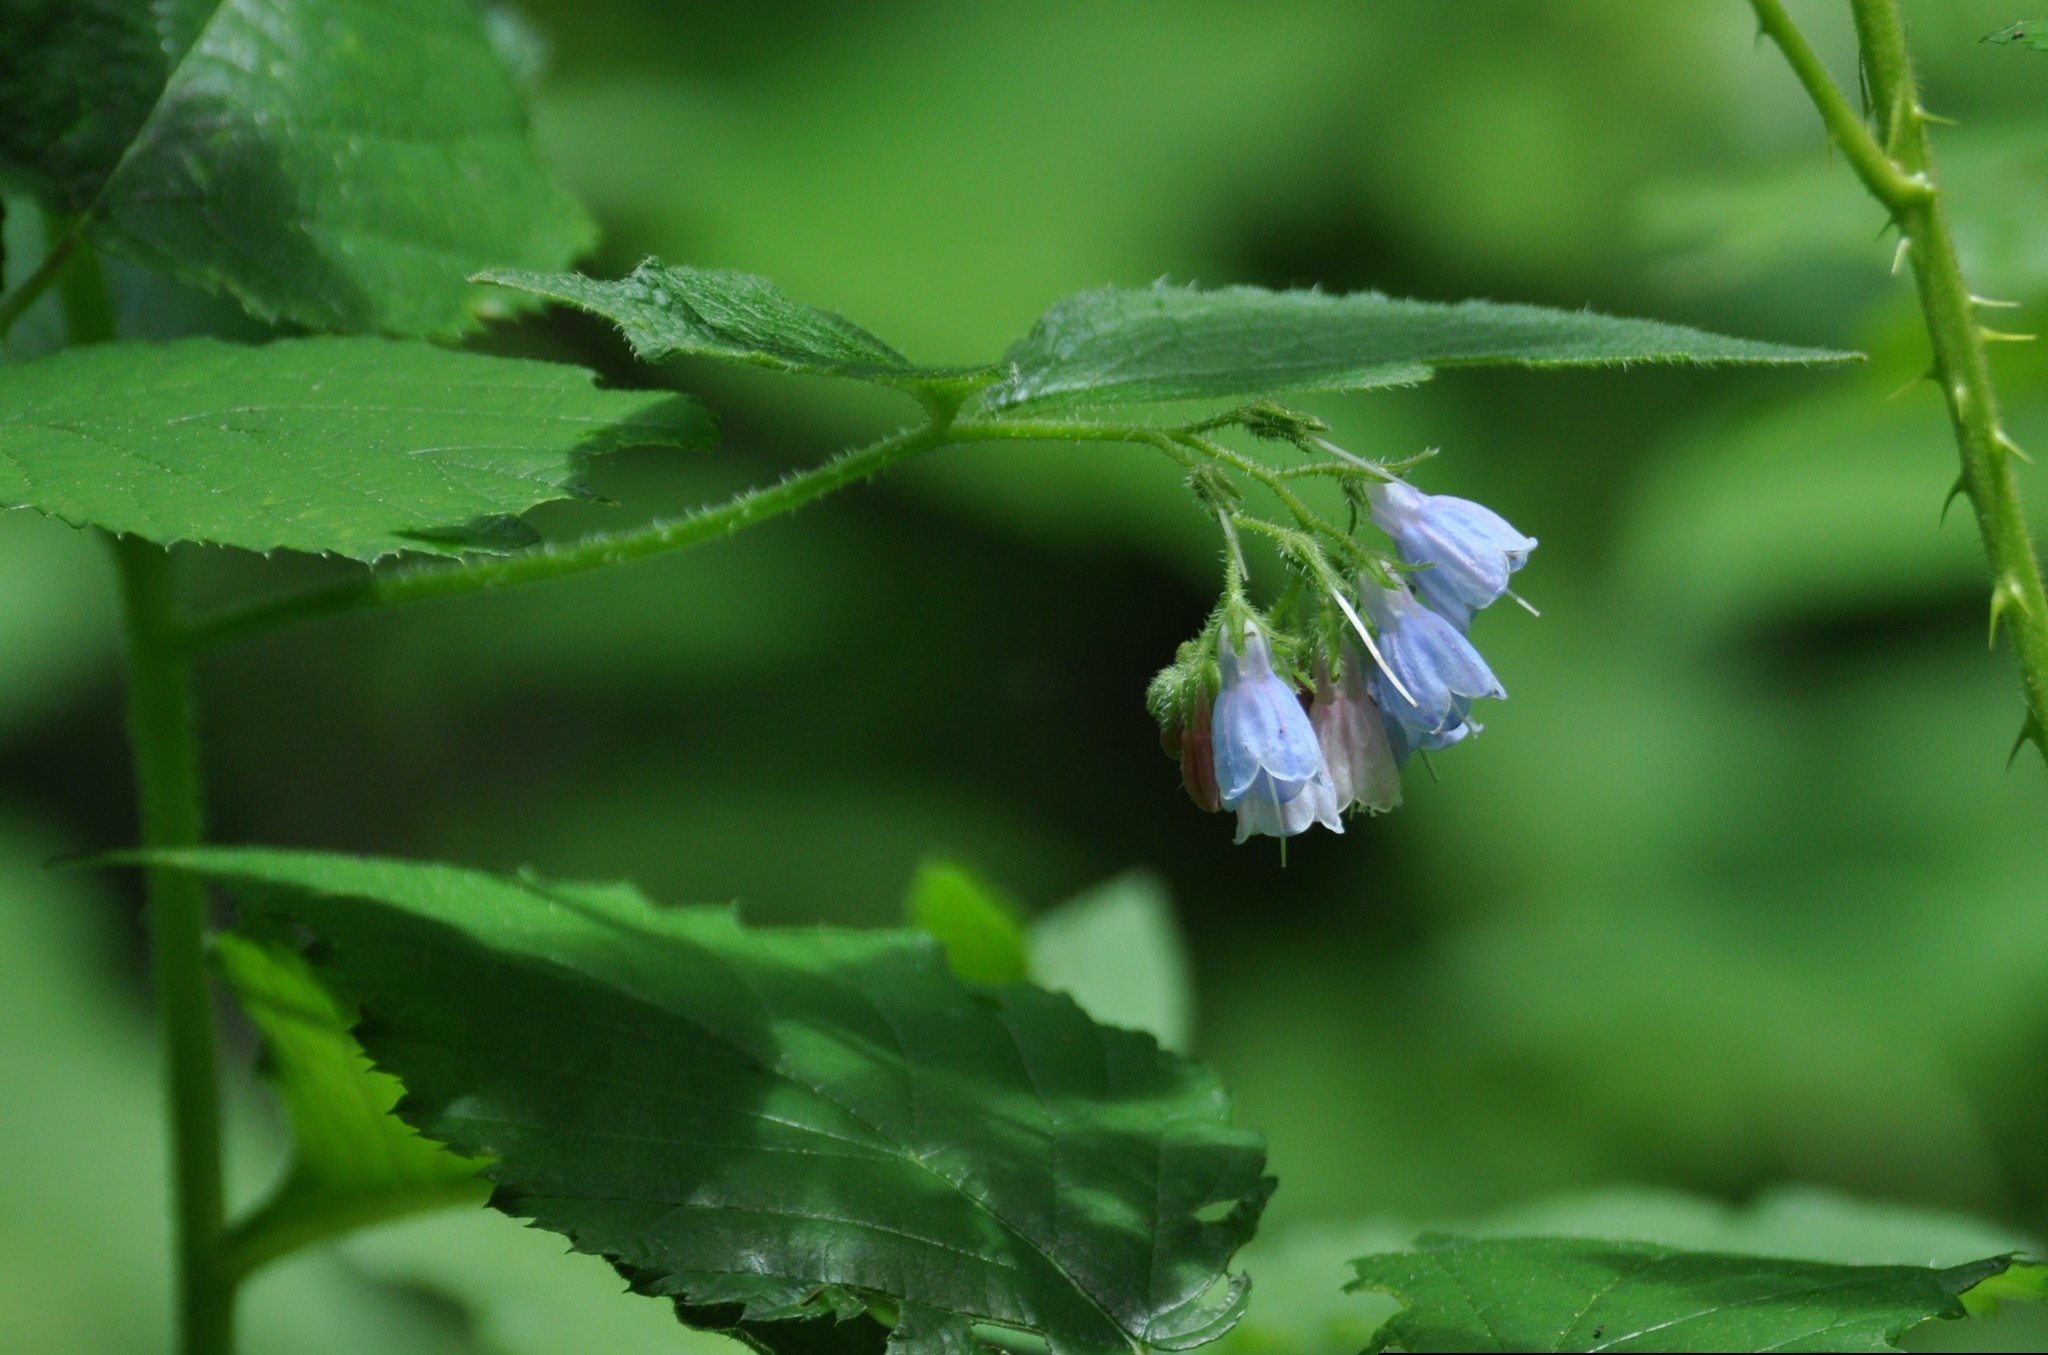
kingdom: Plantae
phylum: Tracheophyta
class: Magnoliopsida
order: Boraginales
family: Boraginaceae
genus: Symphytum
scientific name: Symphytum asperum
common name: Prickly comfrey
